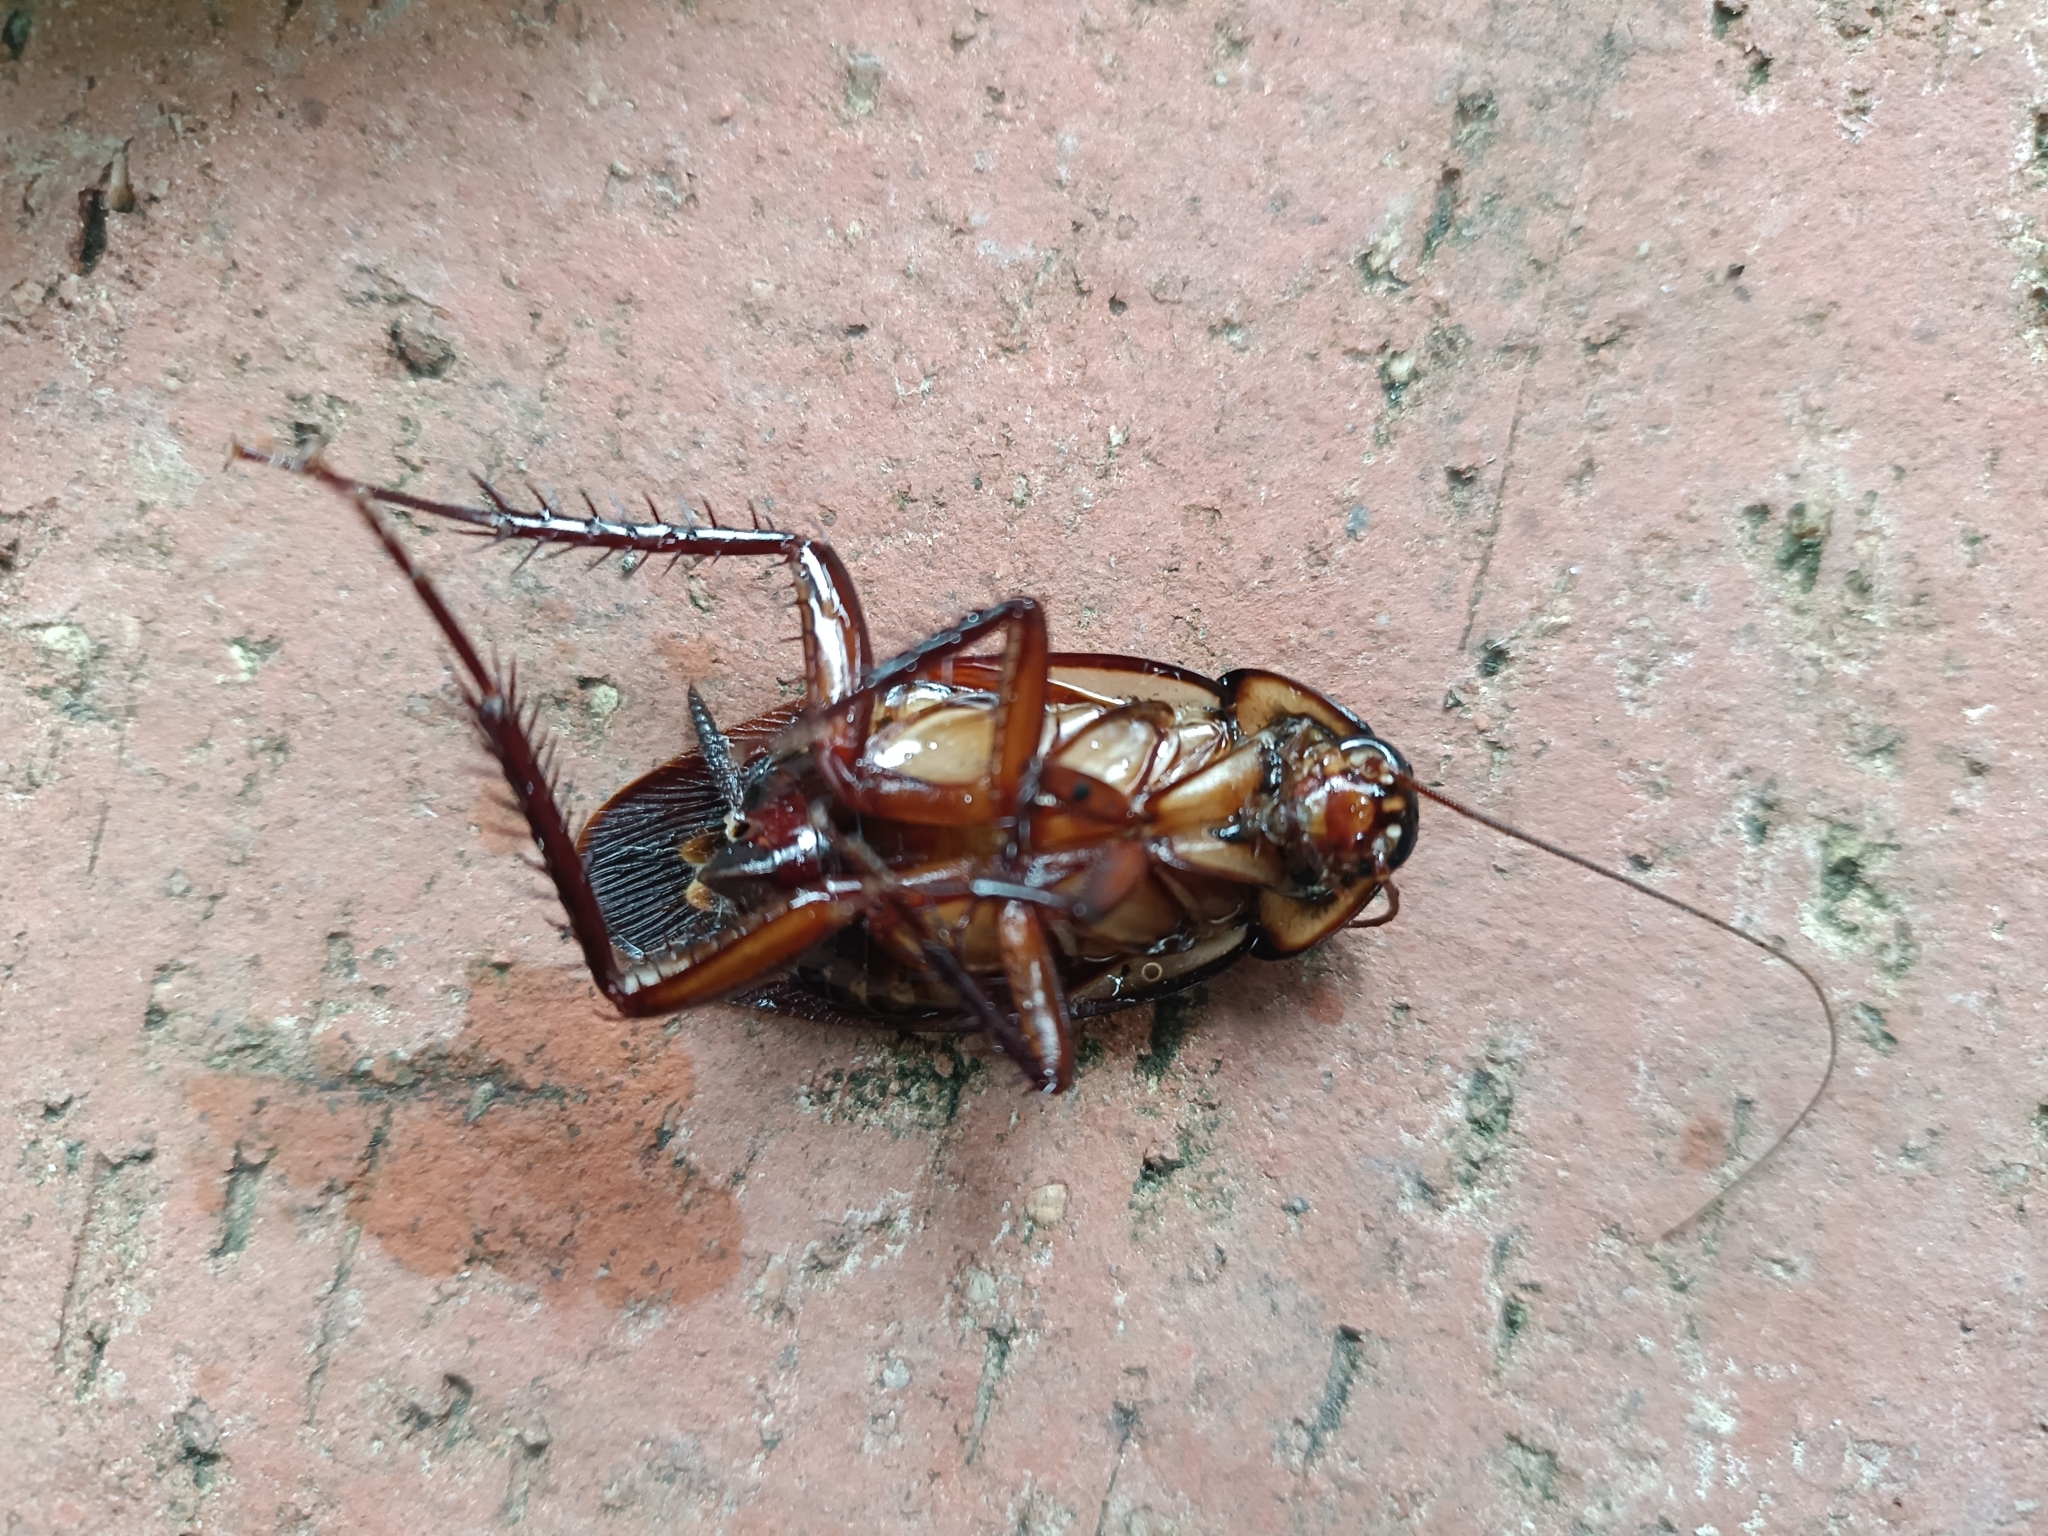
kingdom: Animalia
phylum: Arthropoda
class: Insecta
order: Blattodea
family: Blattidae
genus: Periplaneta
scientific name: Periplaneta australasiae
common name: Australian cockroach
